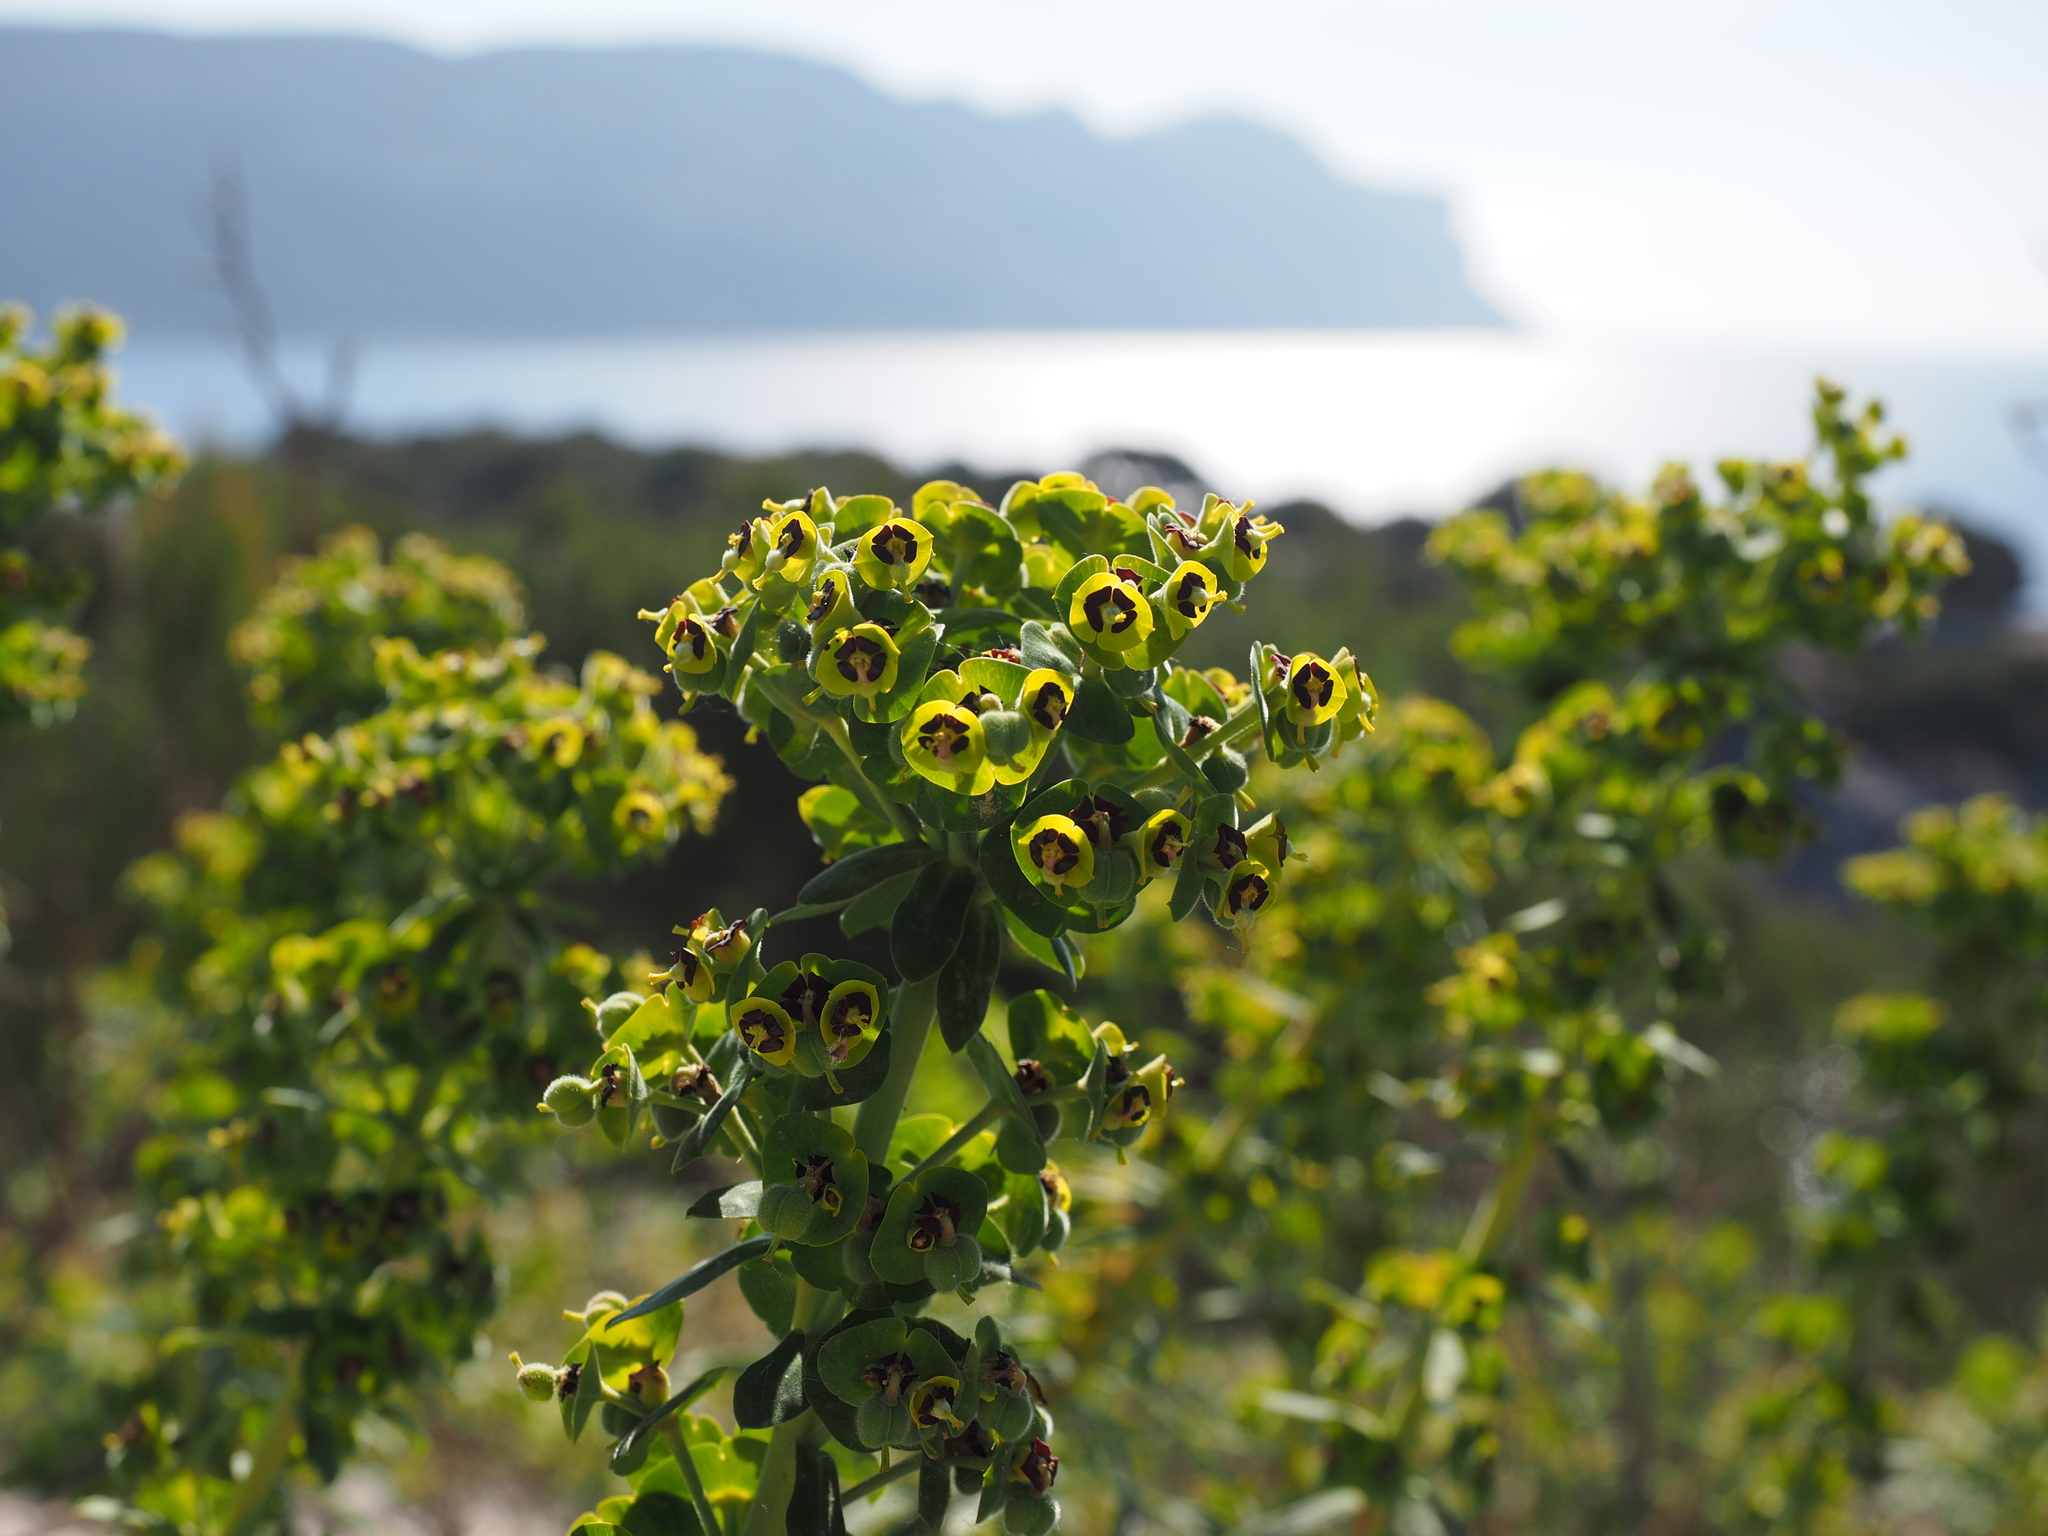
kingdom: Plantae
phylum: Tracheophyta
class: Magnoliopsida
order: Malpighiales
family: Euphorbiaceae
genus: Euphorbia
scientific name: Euphorbia characias
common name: Mediterranean spurge
